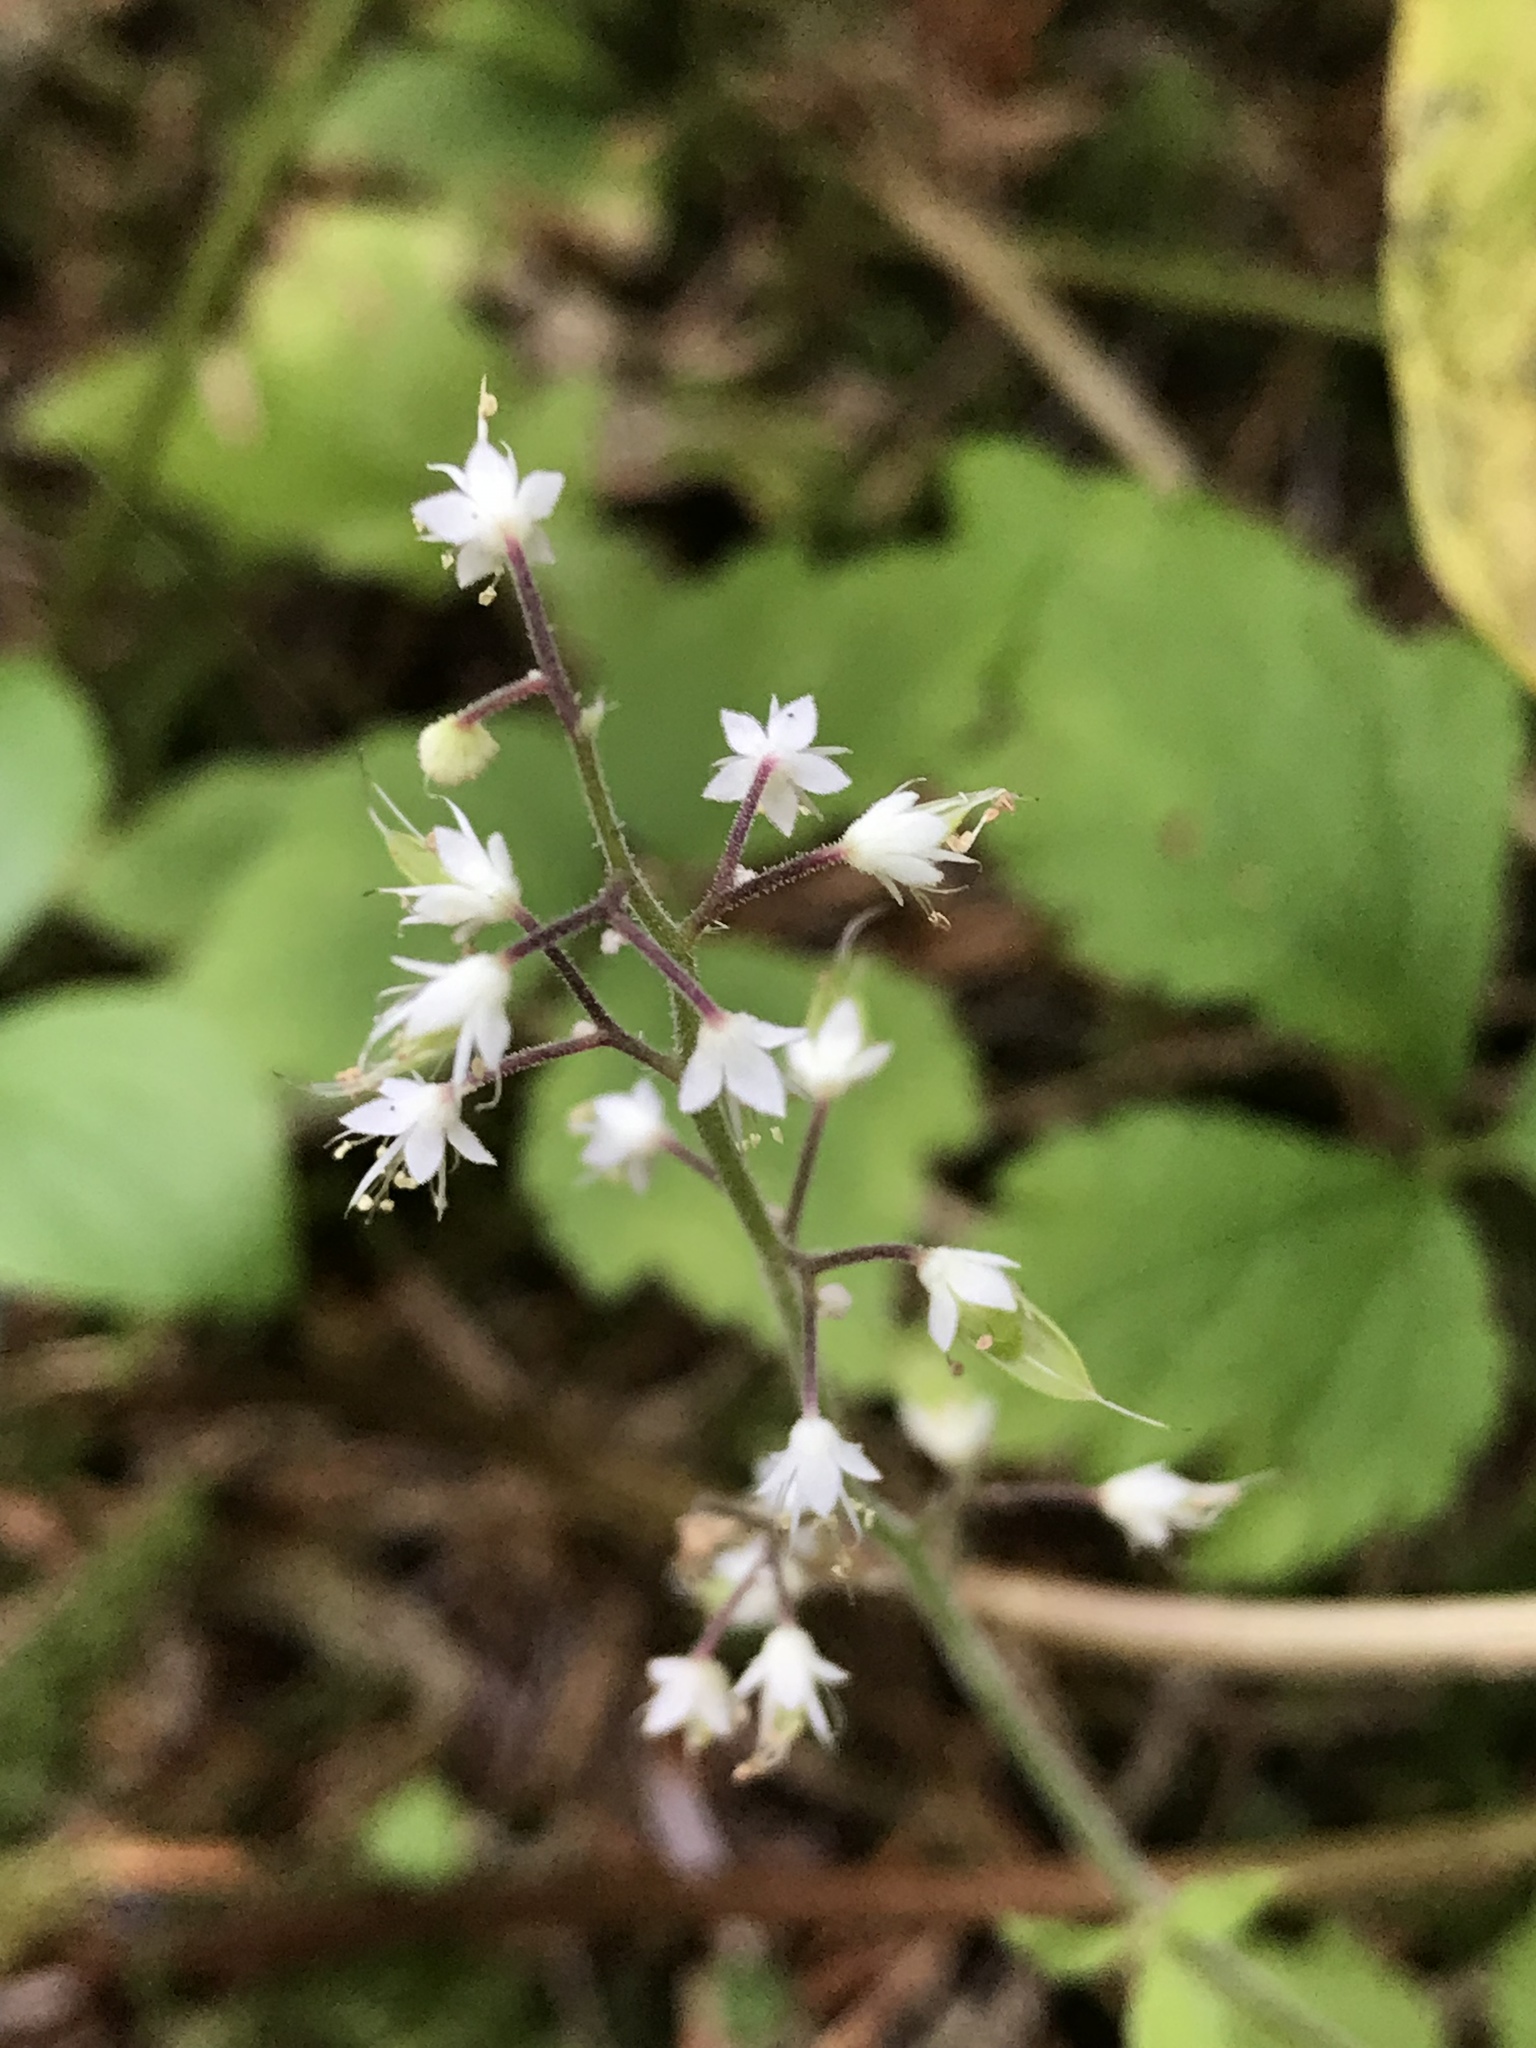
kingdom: Plantae
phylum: Tracheophyta
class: Magnoliopsida
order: Saxifragales
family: Saxifragaceae
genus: Tiarella
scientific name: Tiarella trifoliata
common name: Sugar-scoop
